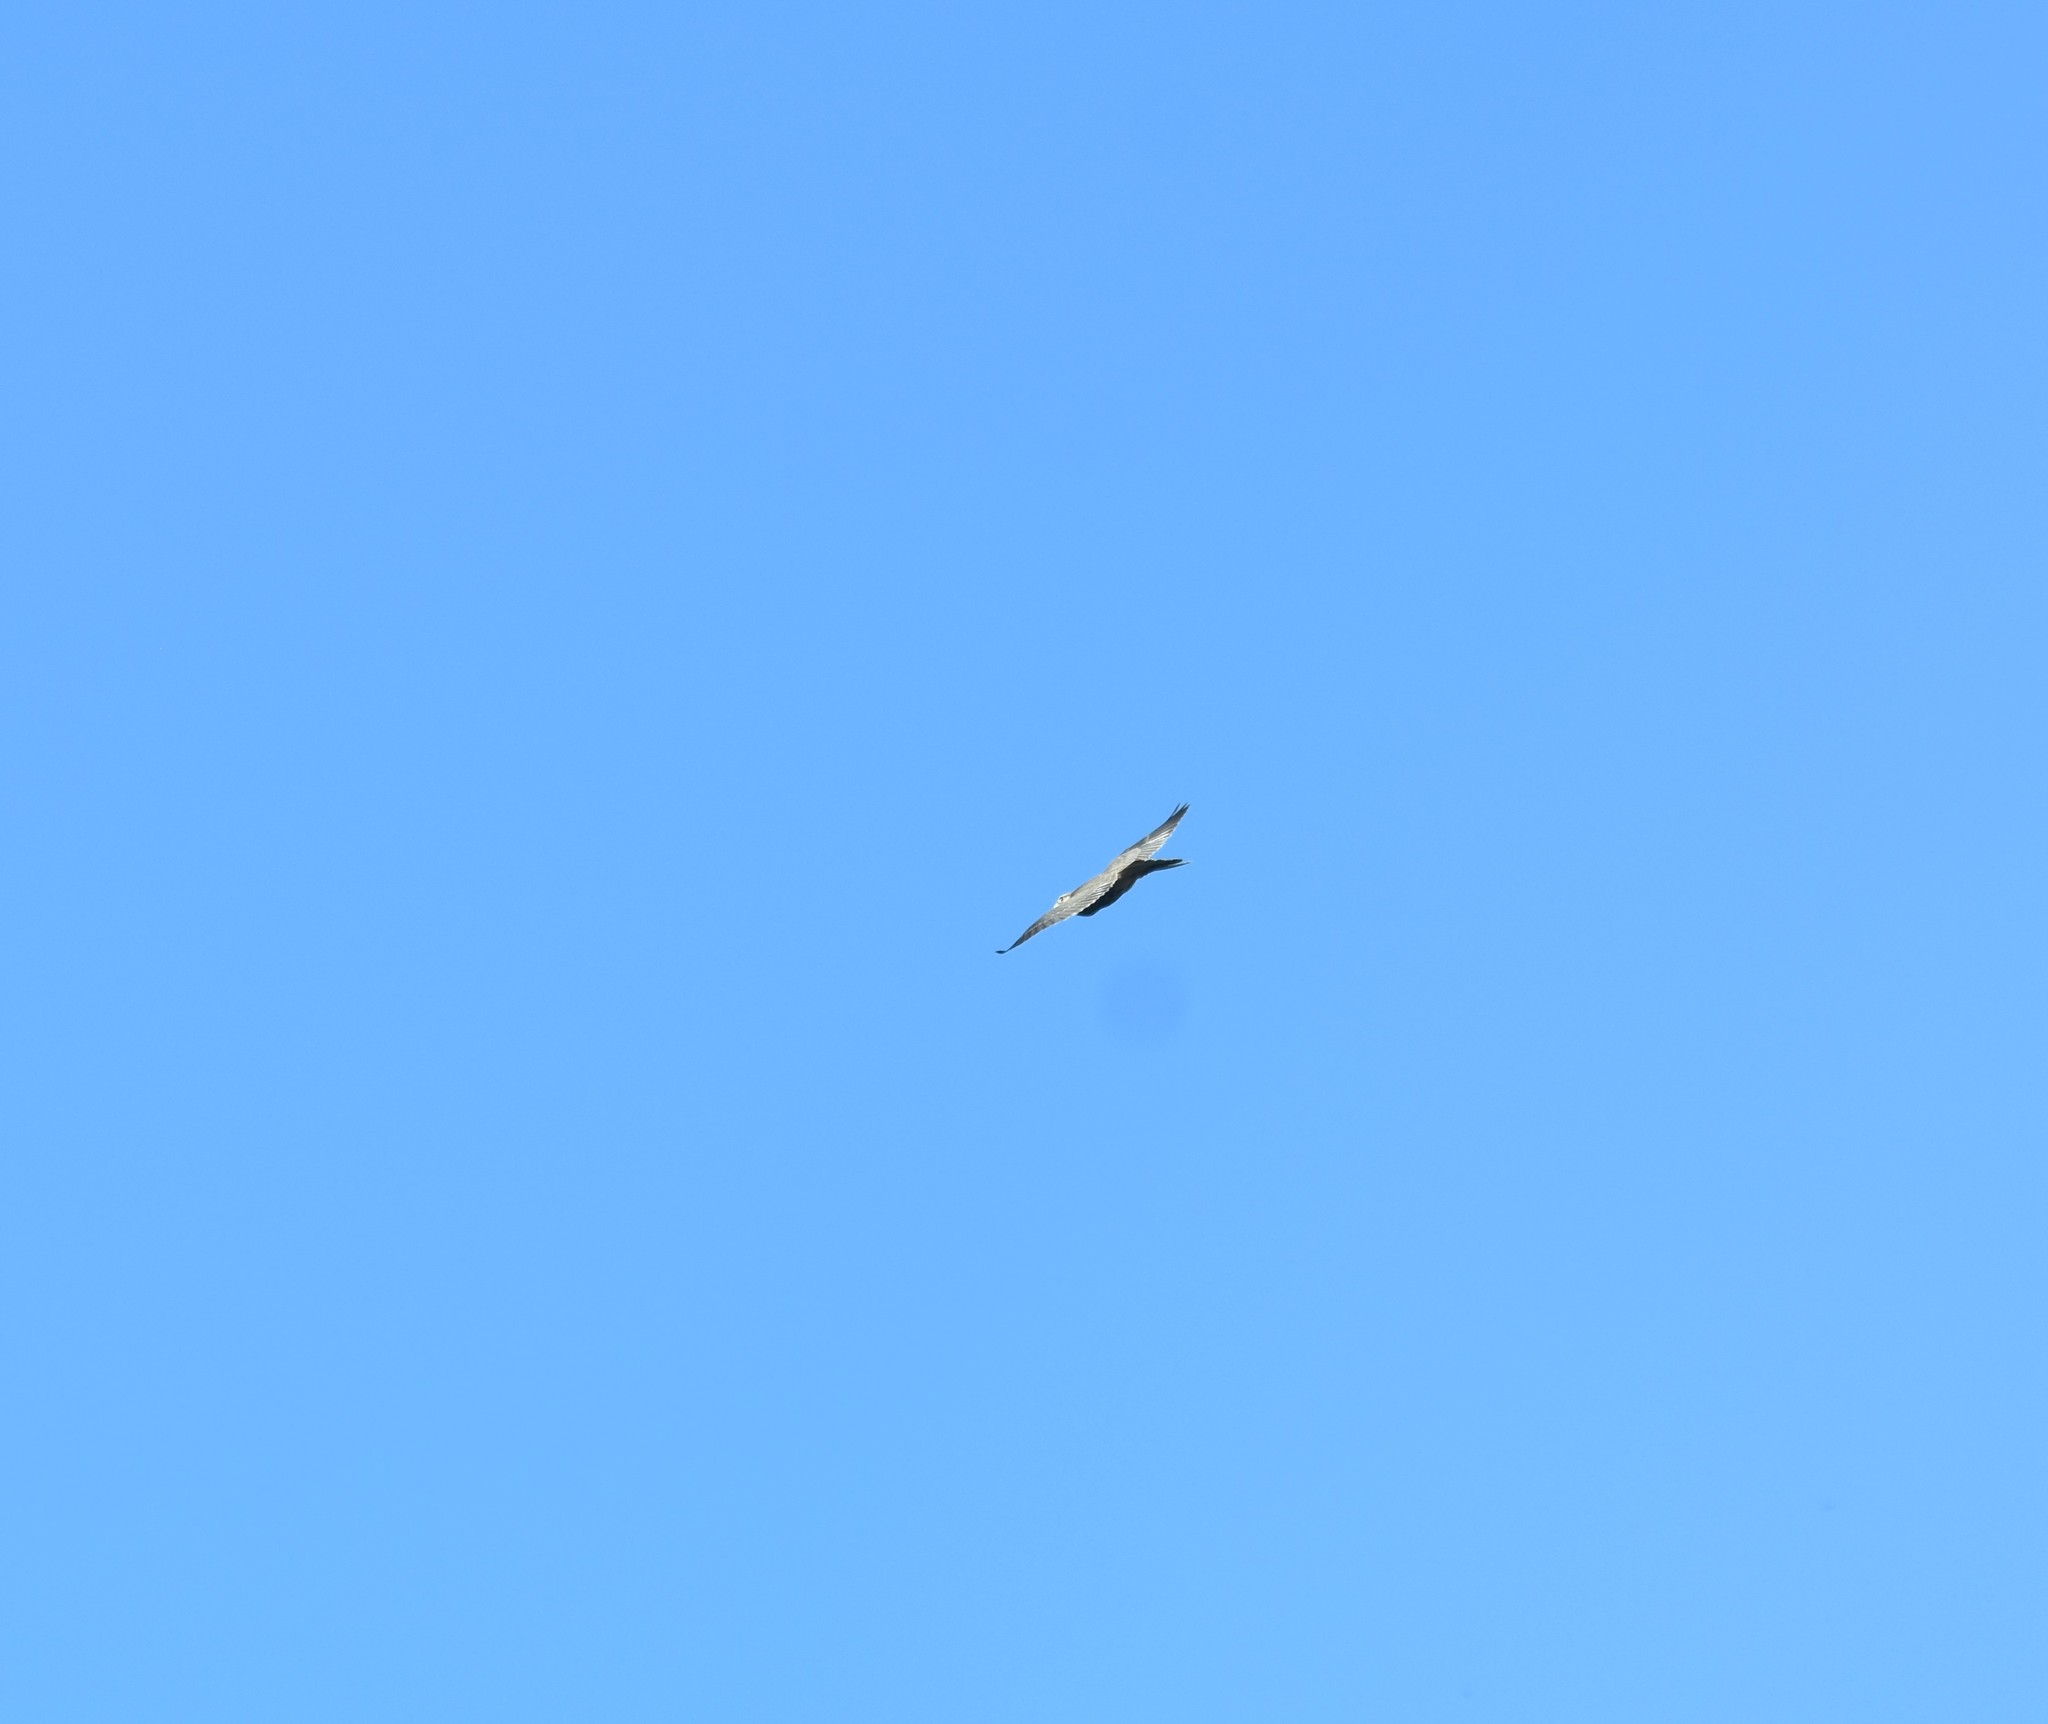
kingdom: Animalia
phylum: Chordata
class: Aves
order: Falconiformes
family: Falconidae
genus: Falco
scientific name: Falco biarmicus
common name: Lanner falcon
